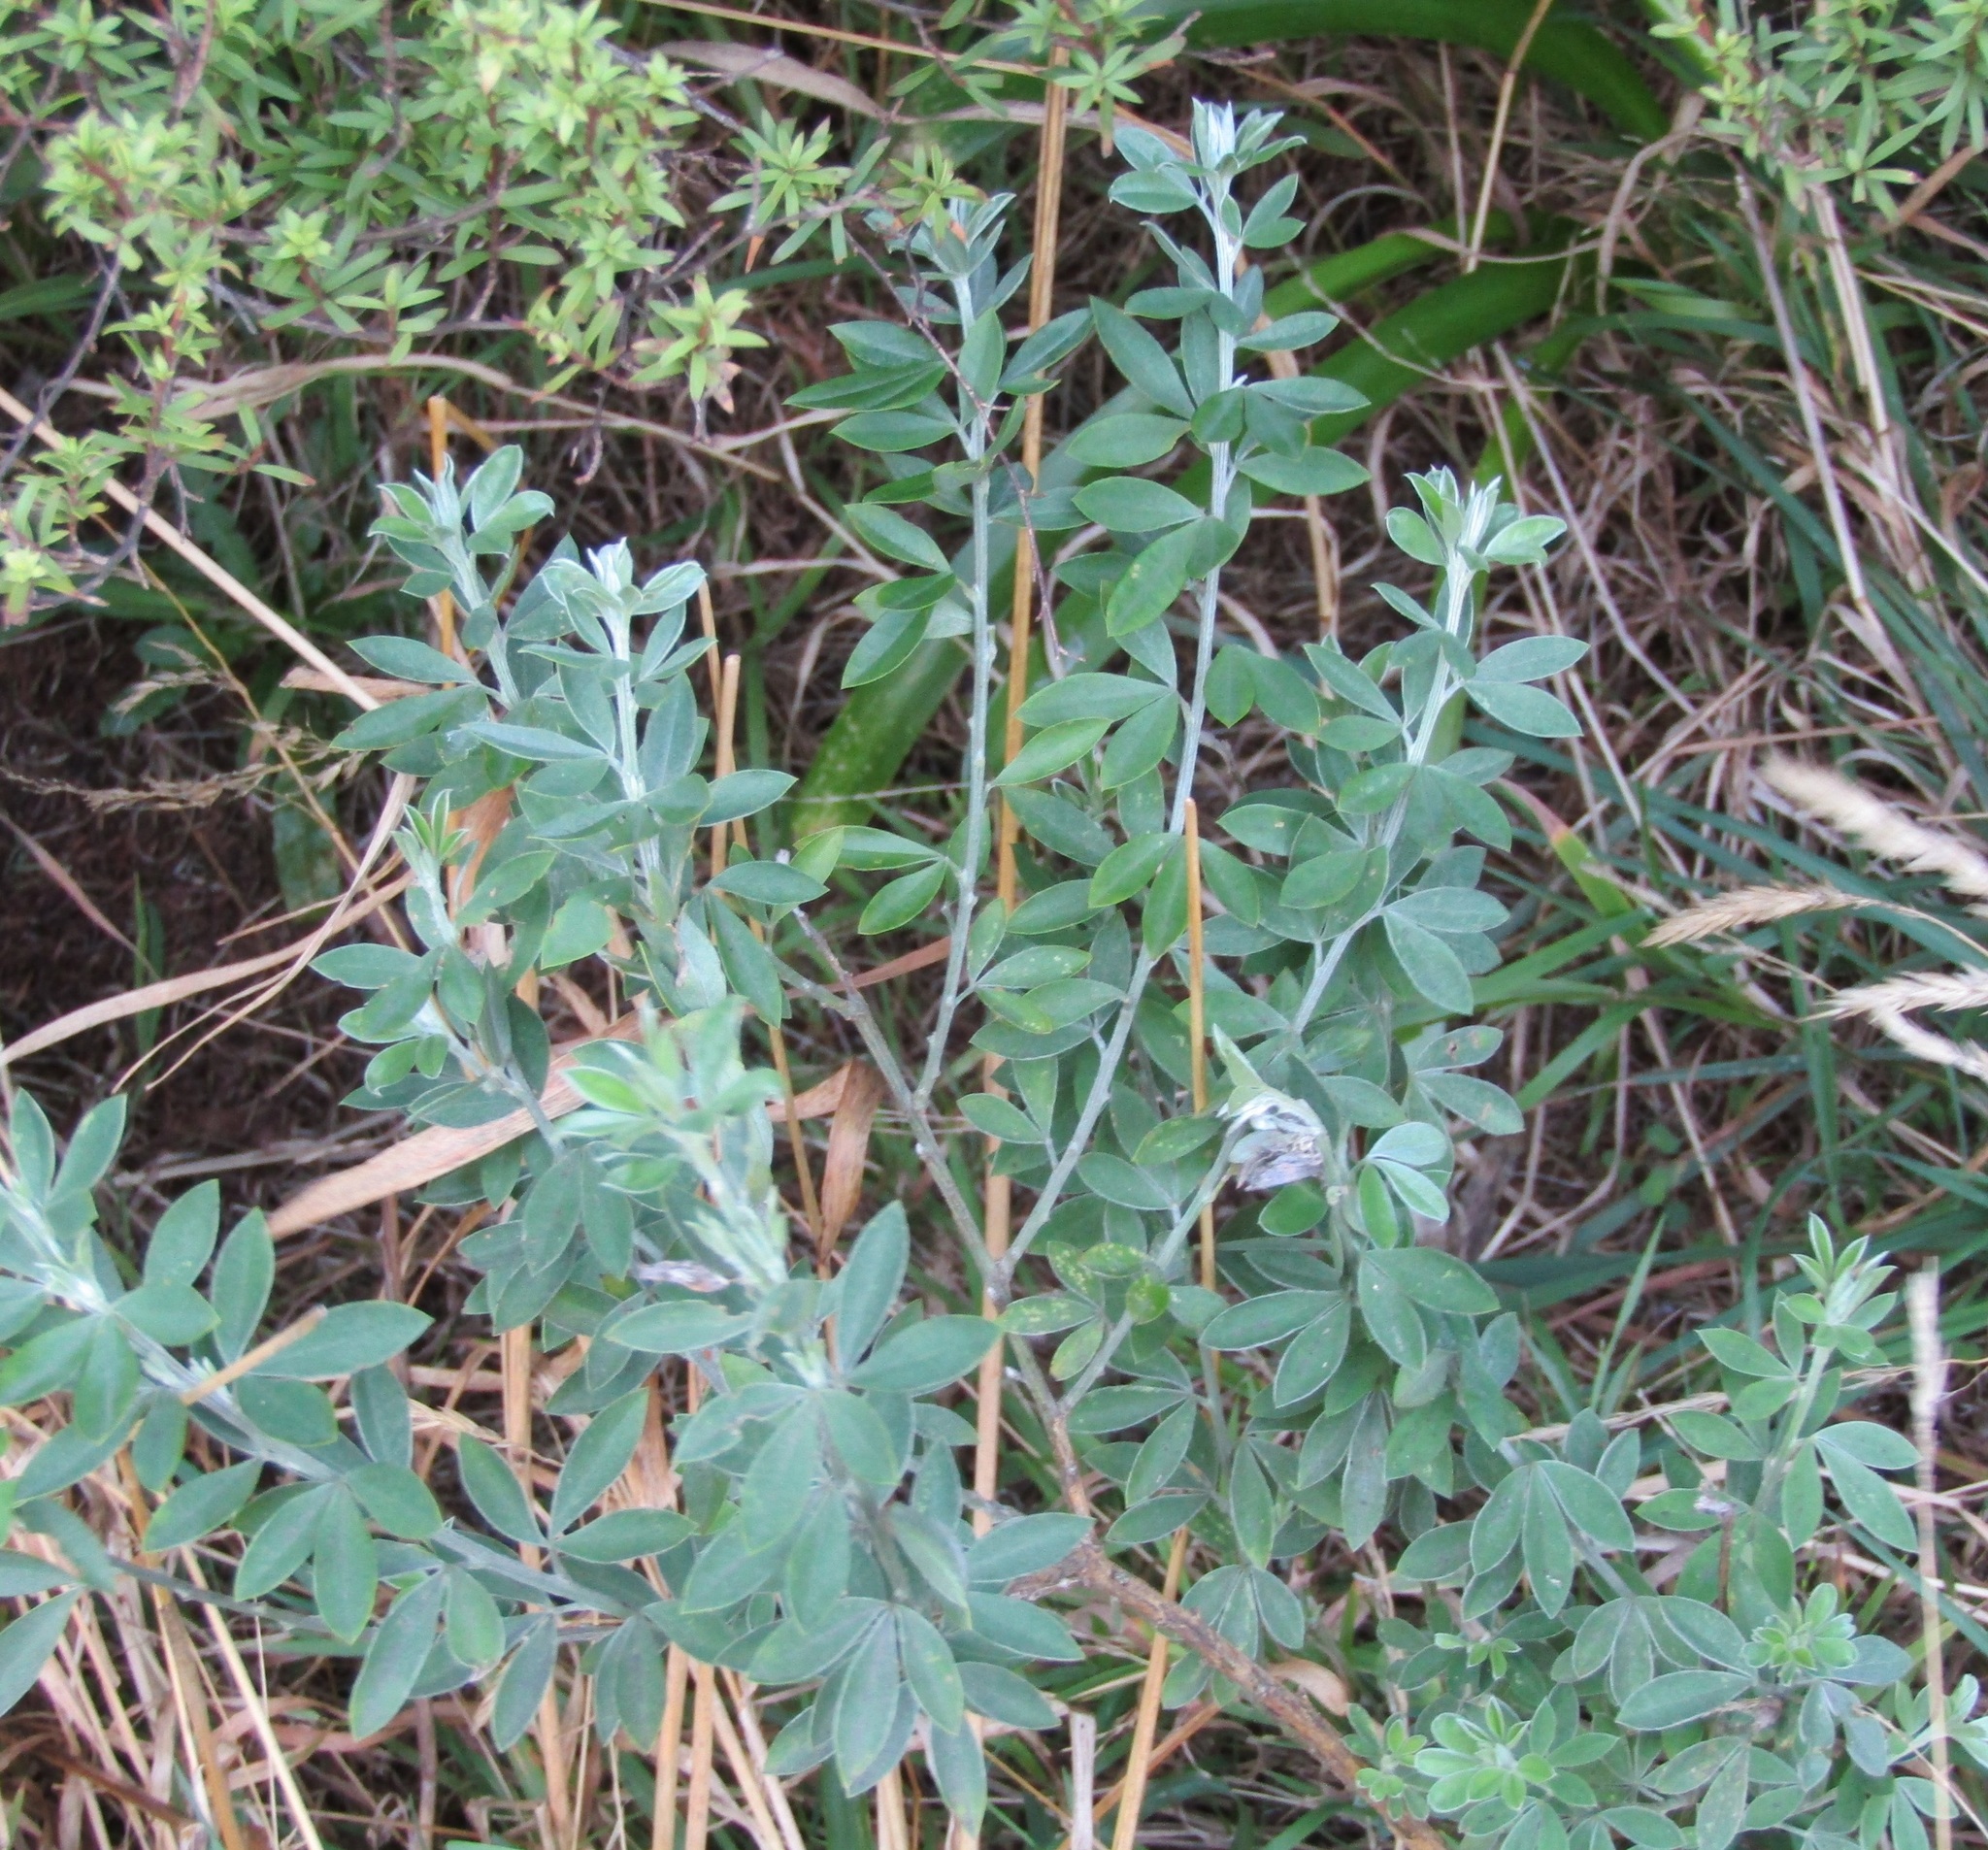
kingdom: Plantae
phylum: Tracheophyta
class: Magnoliopsida
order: Fabales
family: Fabaceae
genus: Chamaecytisus
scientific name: Chamaecytisus prolifer
